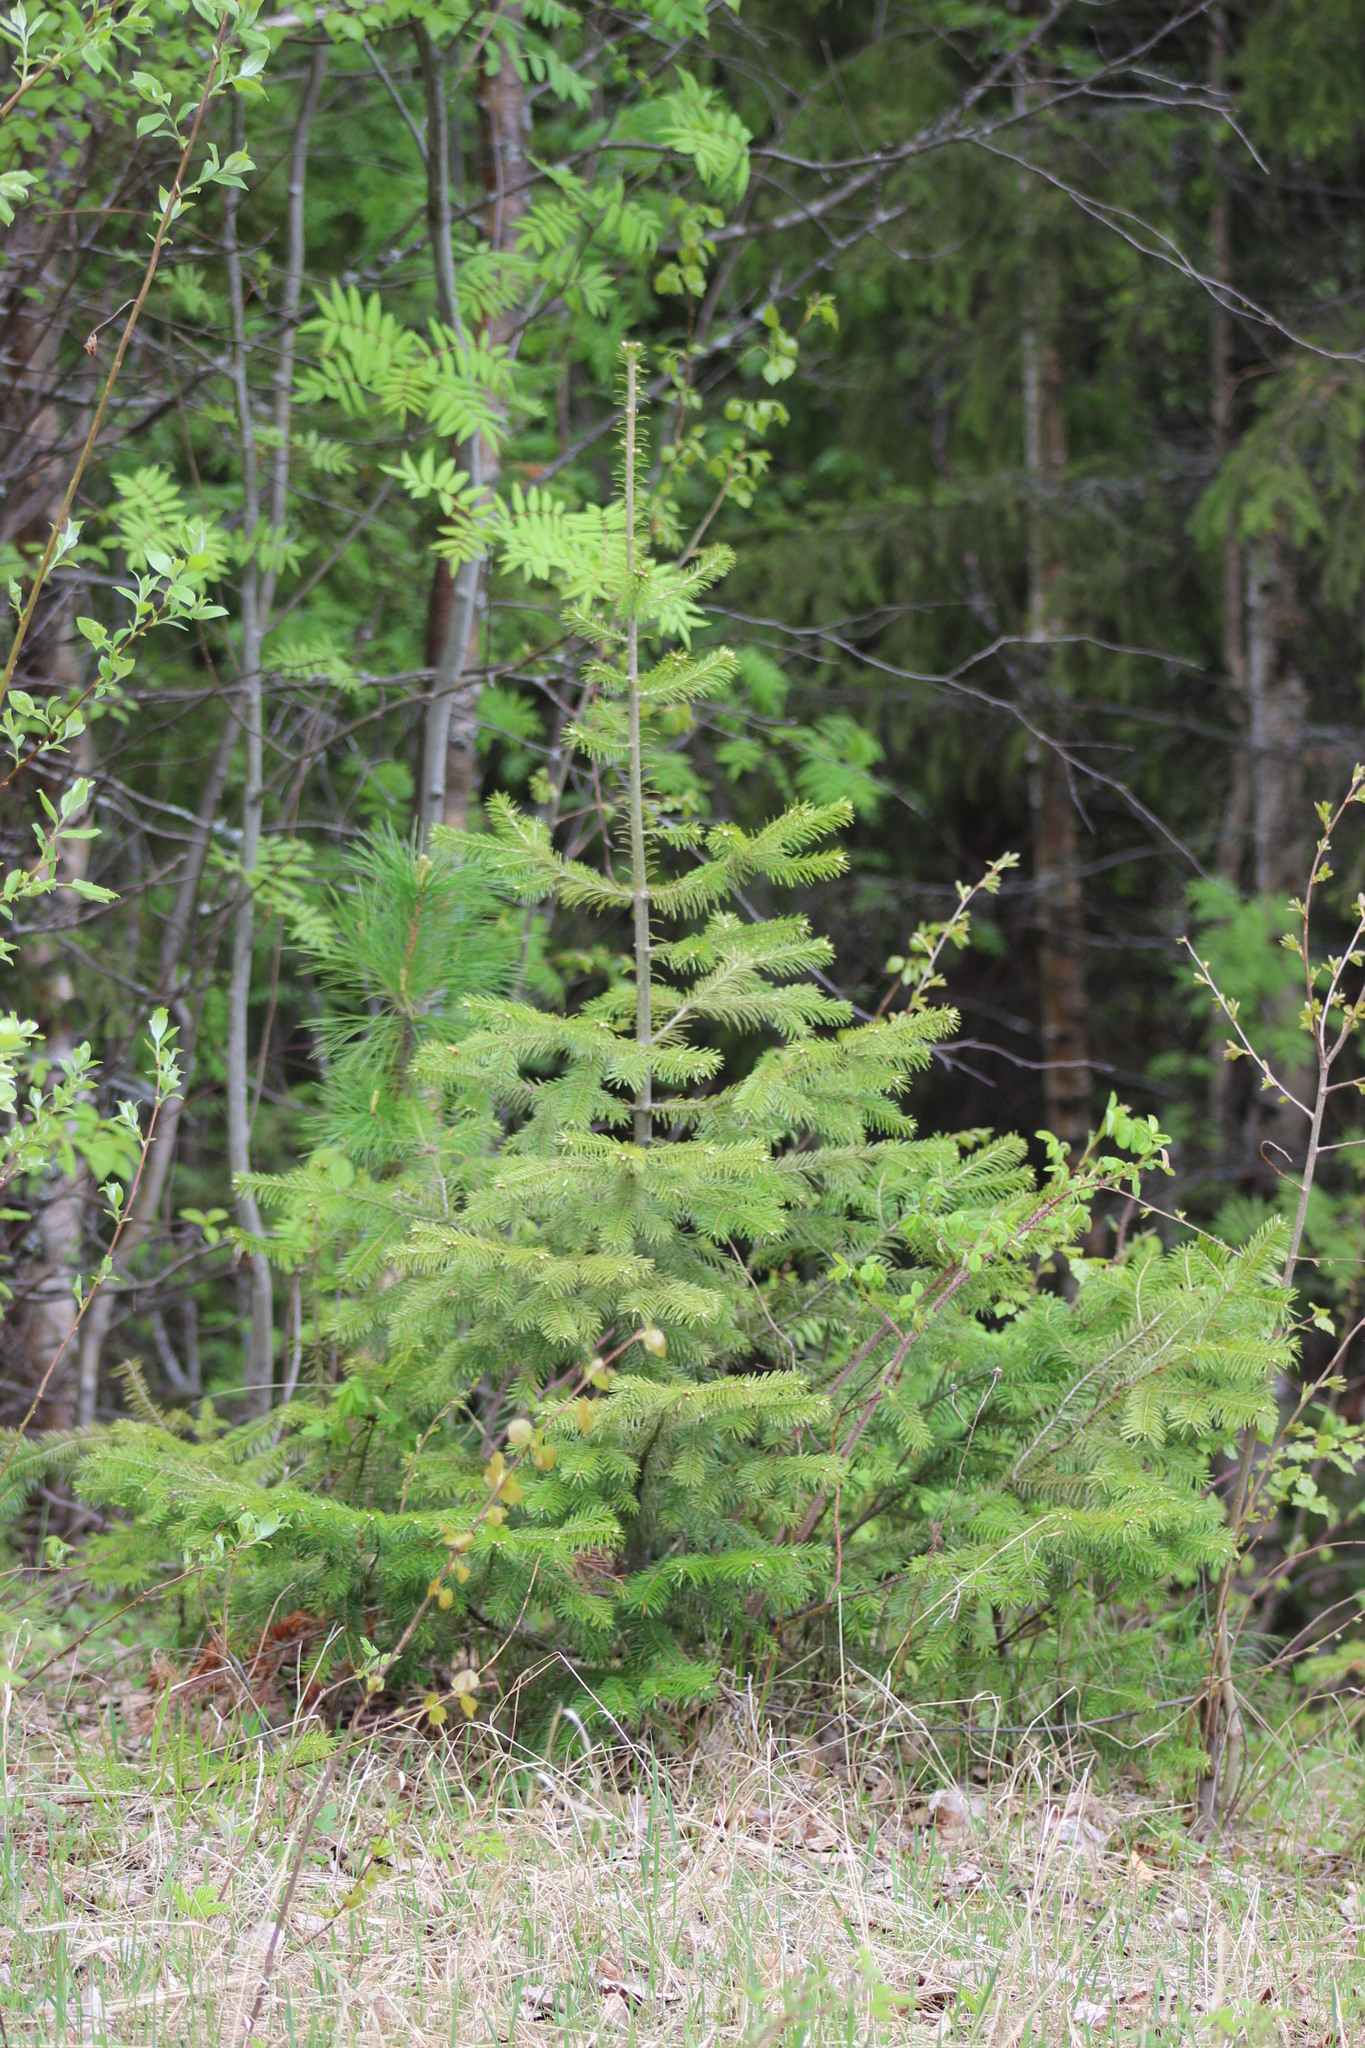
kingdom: Plantae
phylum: Tracheophyta
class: Pinopsida
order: Pinales
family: Pinaceae
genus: Abies
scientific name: Abies sibirica
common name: Siberian fir
